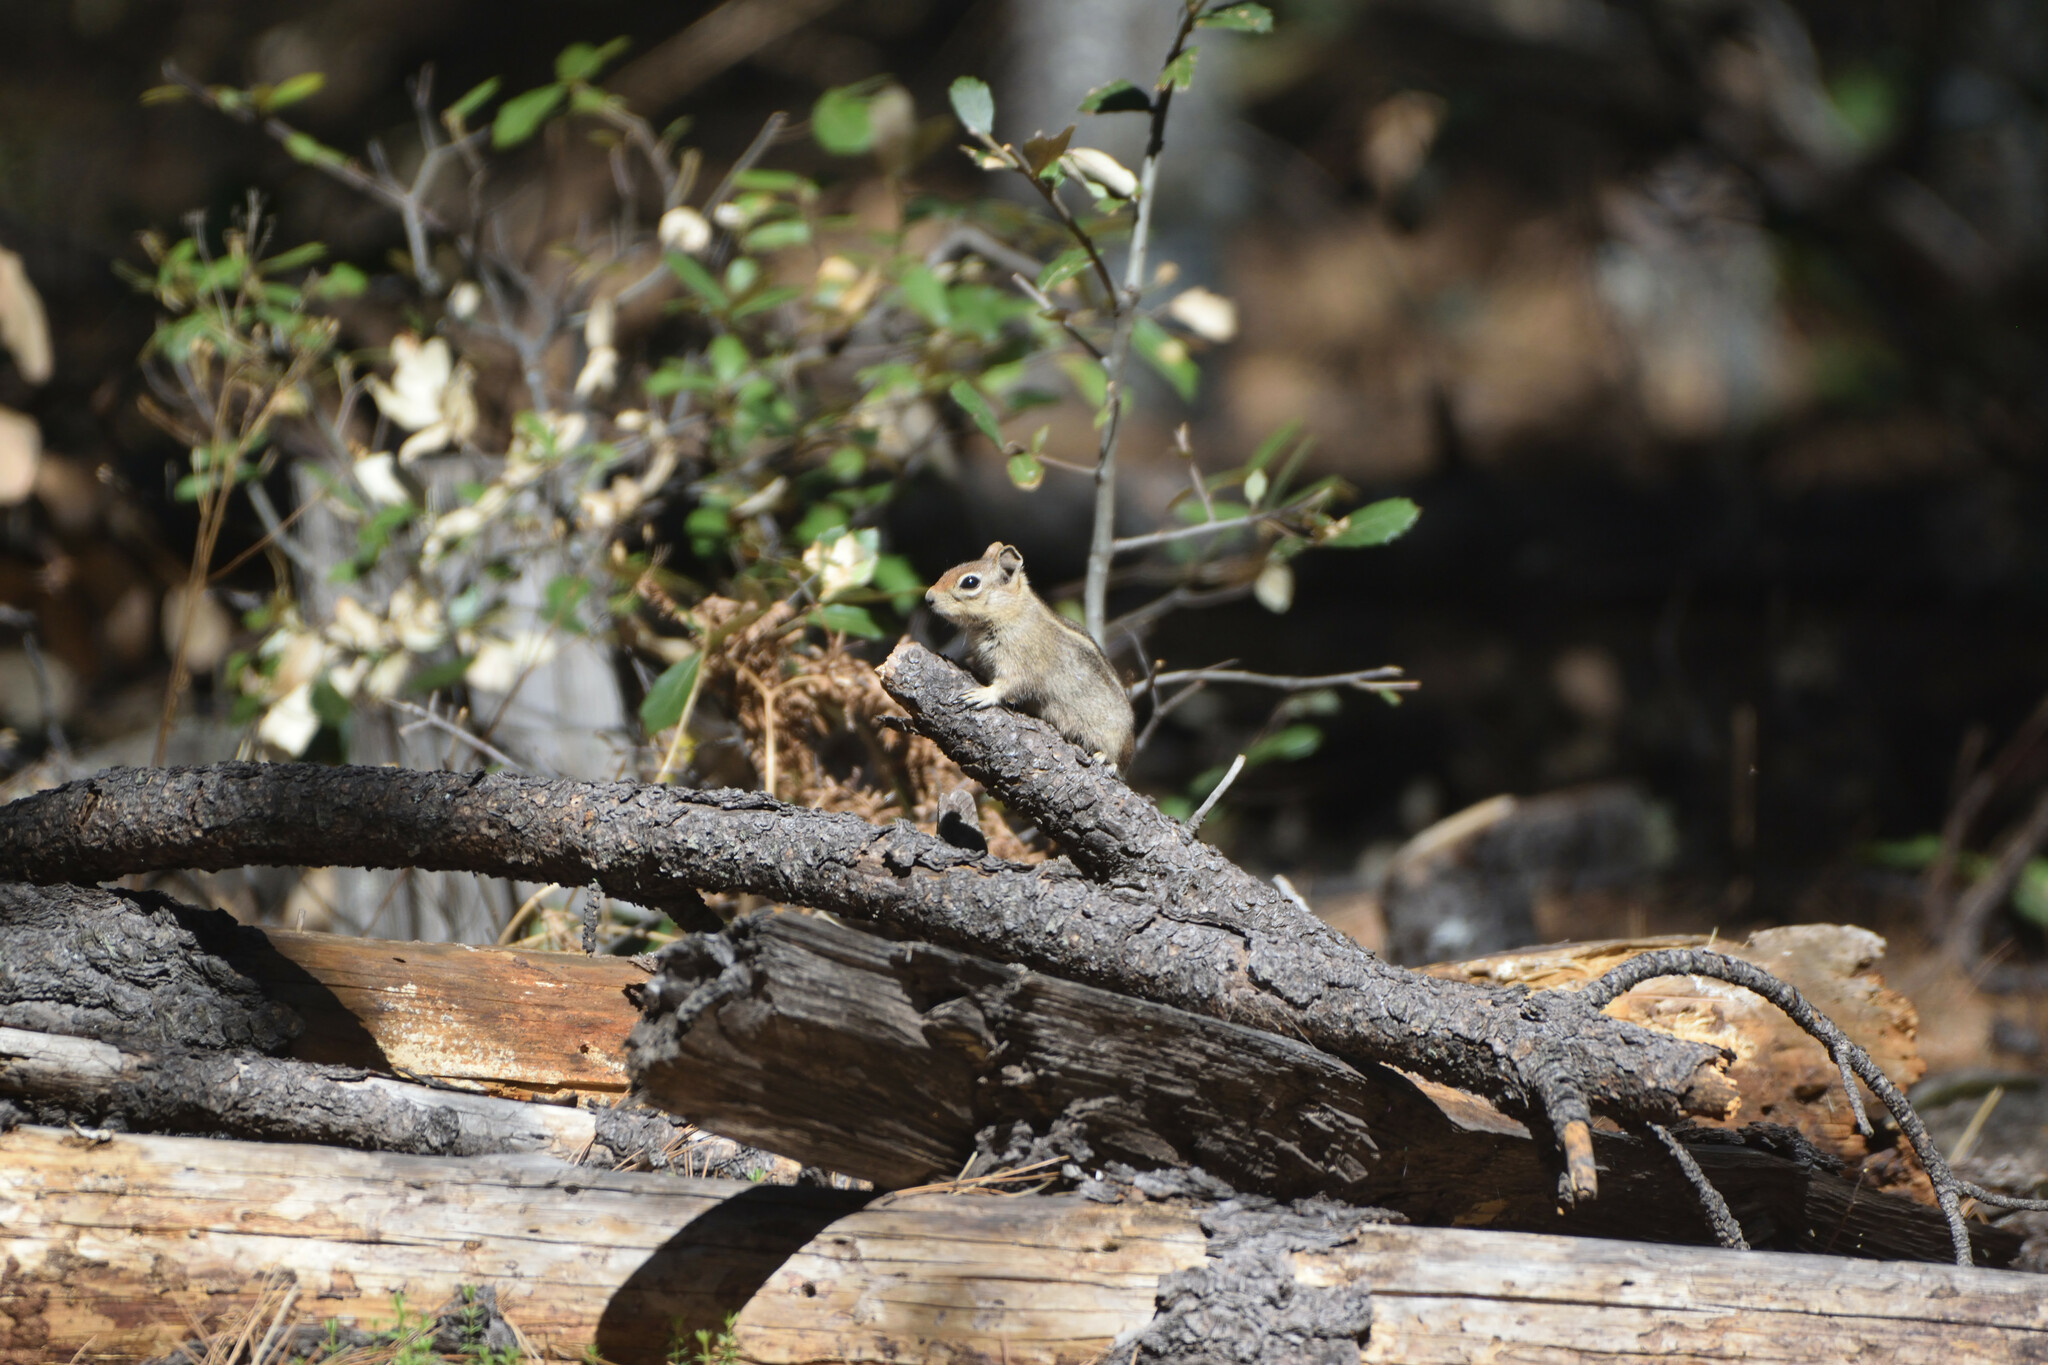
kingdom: Animalia
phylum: Chordata
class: Mammalia
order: Rodentia
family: Sciuridae
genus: Callospermophilus
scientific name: Callospermophilus madrensis
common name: Sierra madre ground squirrel
